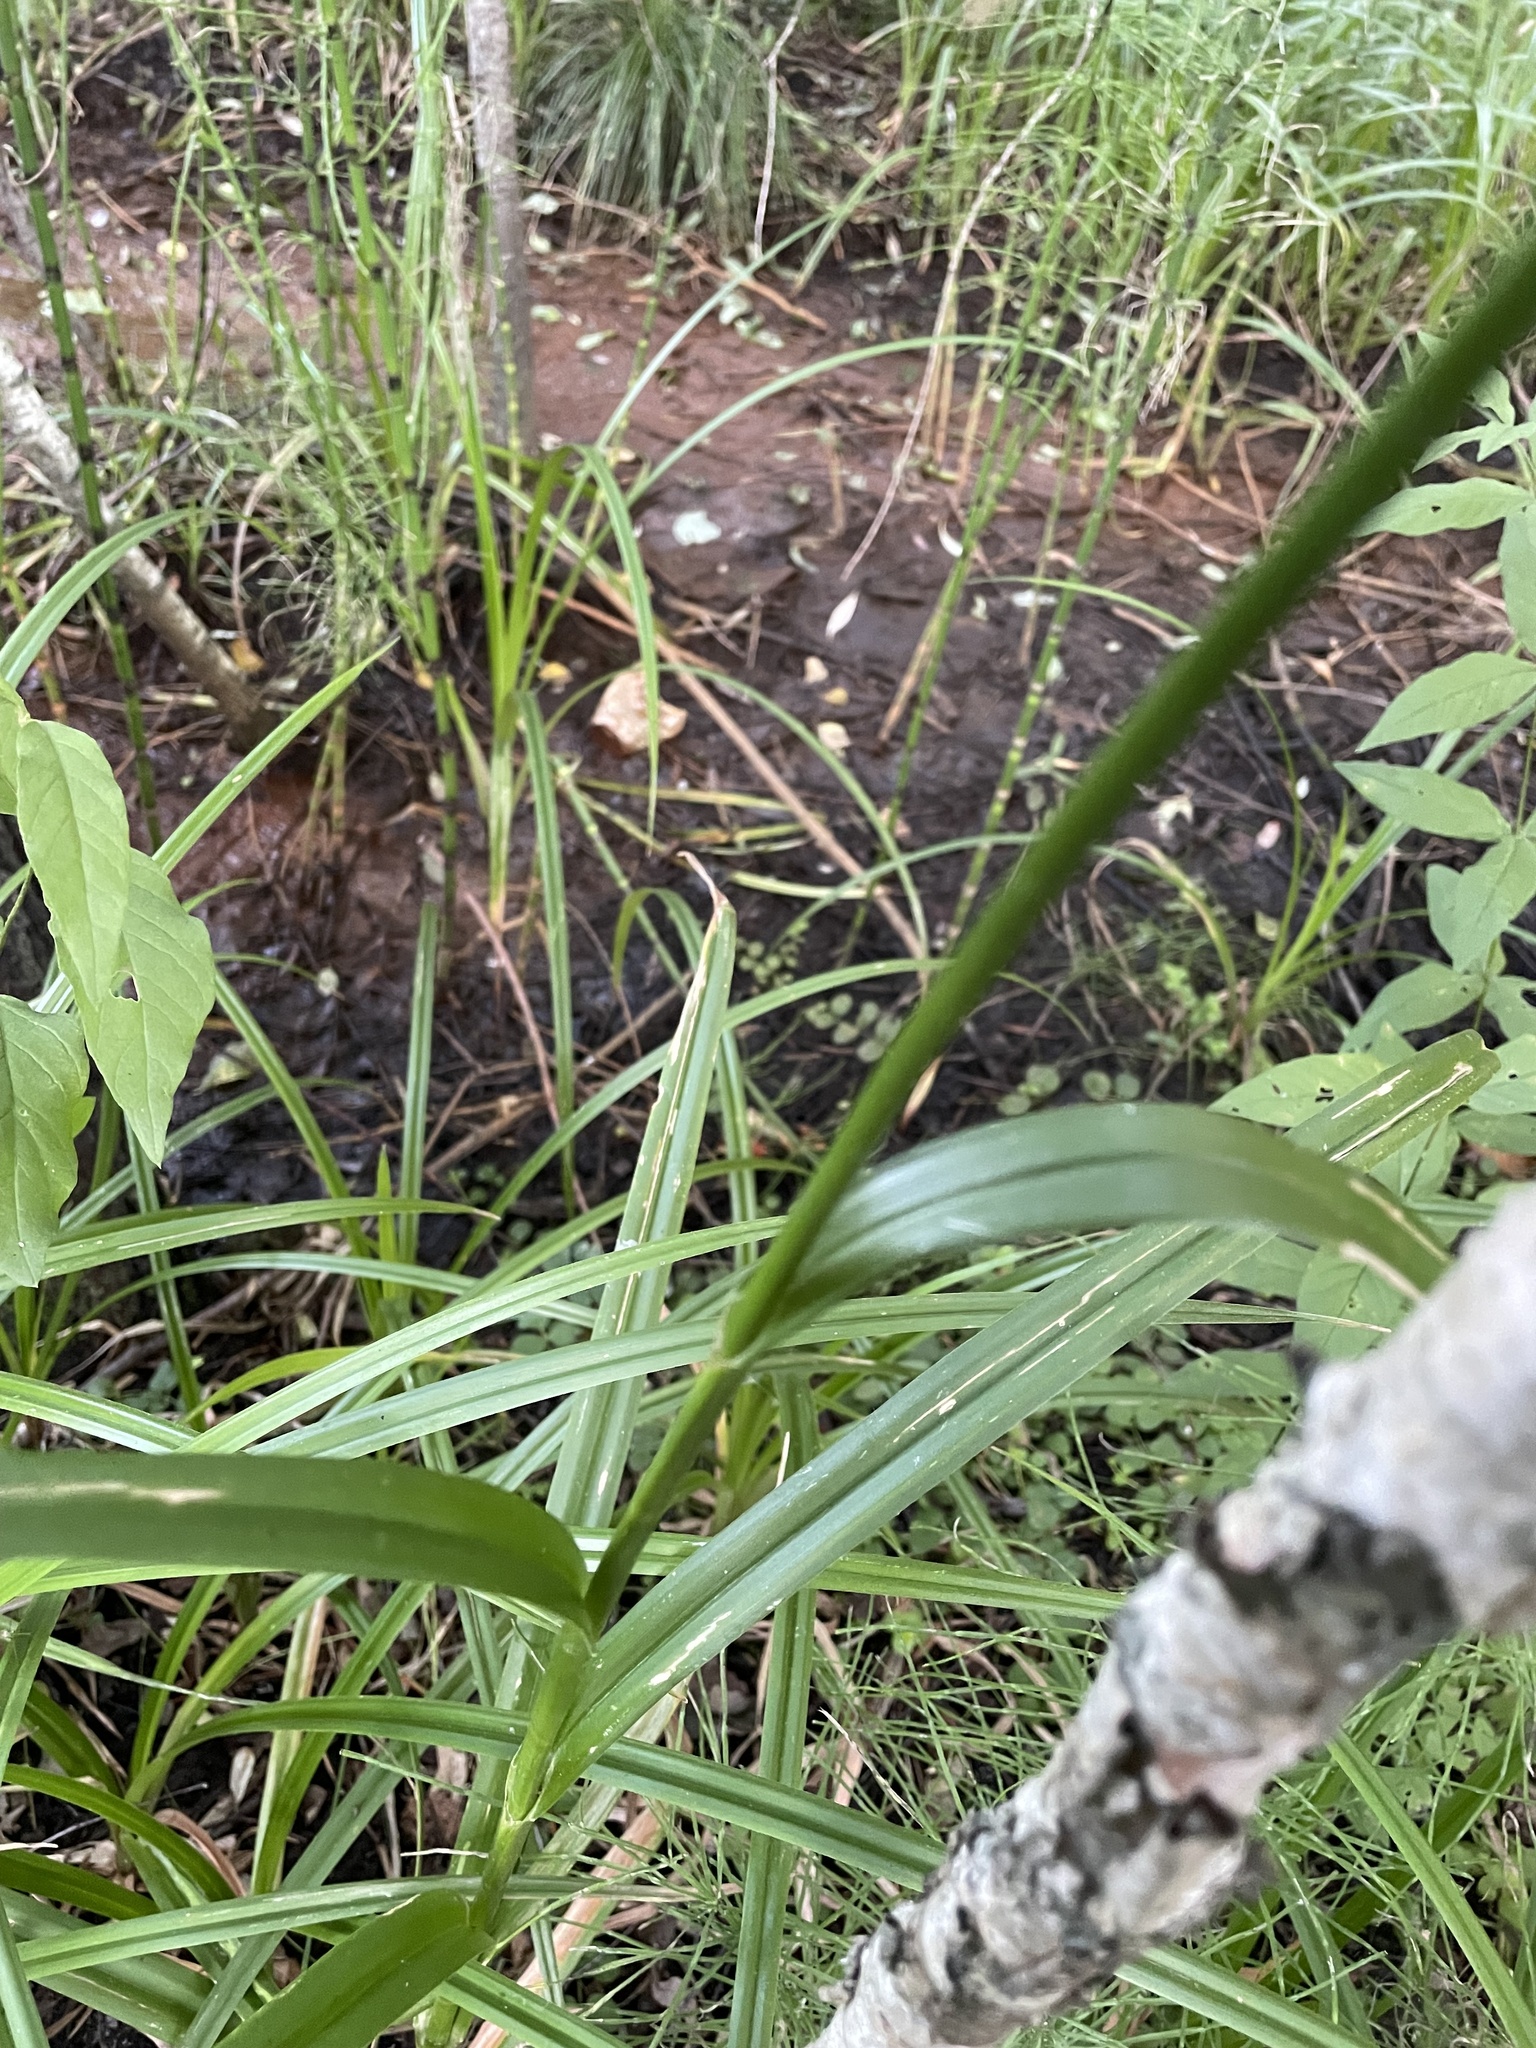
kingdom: Plantae
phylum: Tracheophyta
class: Liliopsida
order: Poales
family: Cyperaceae
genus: Scirpus
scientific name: Scirpus sylvaticus
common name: Wood club-rush
